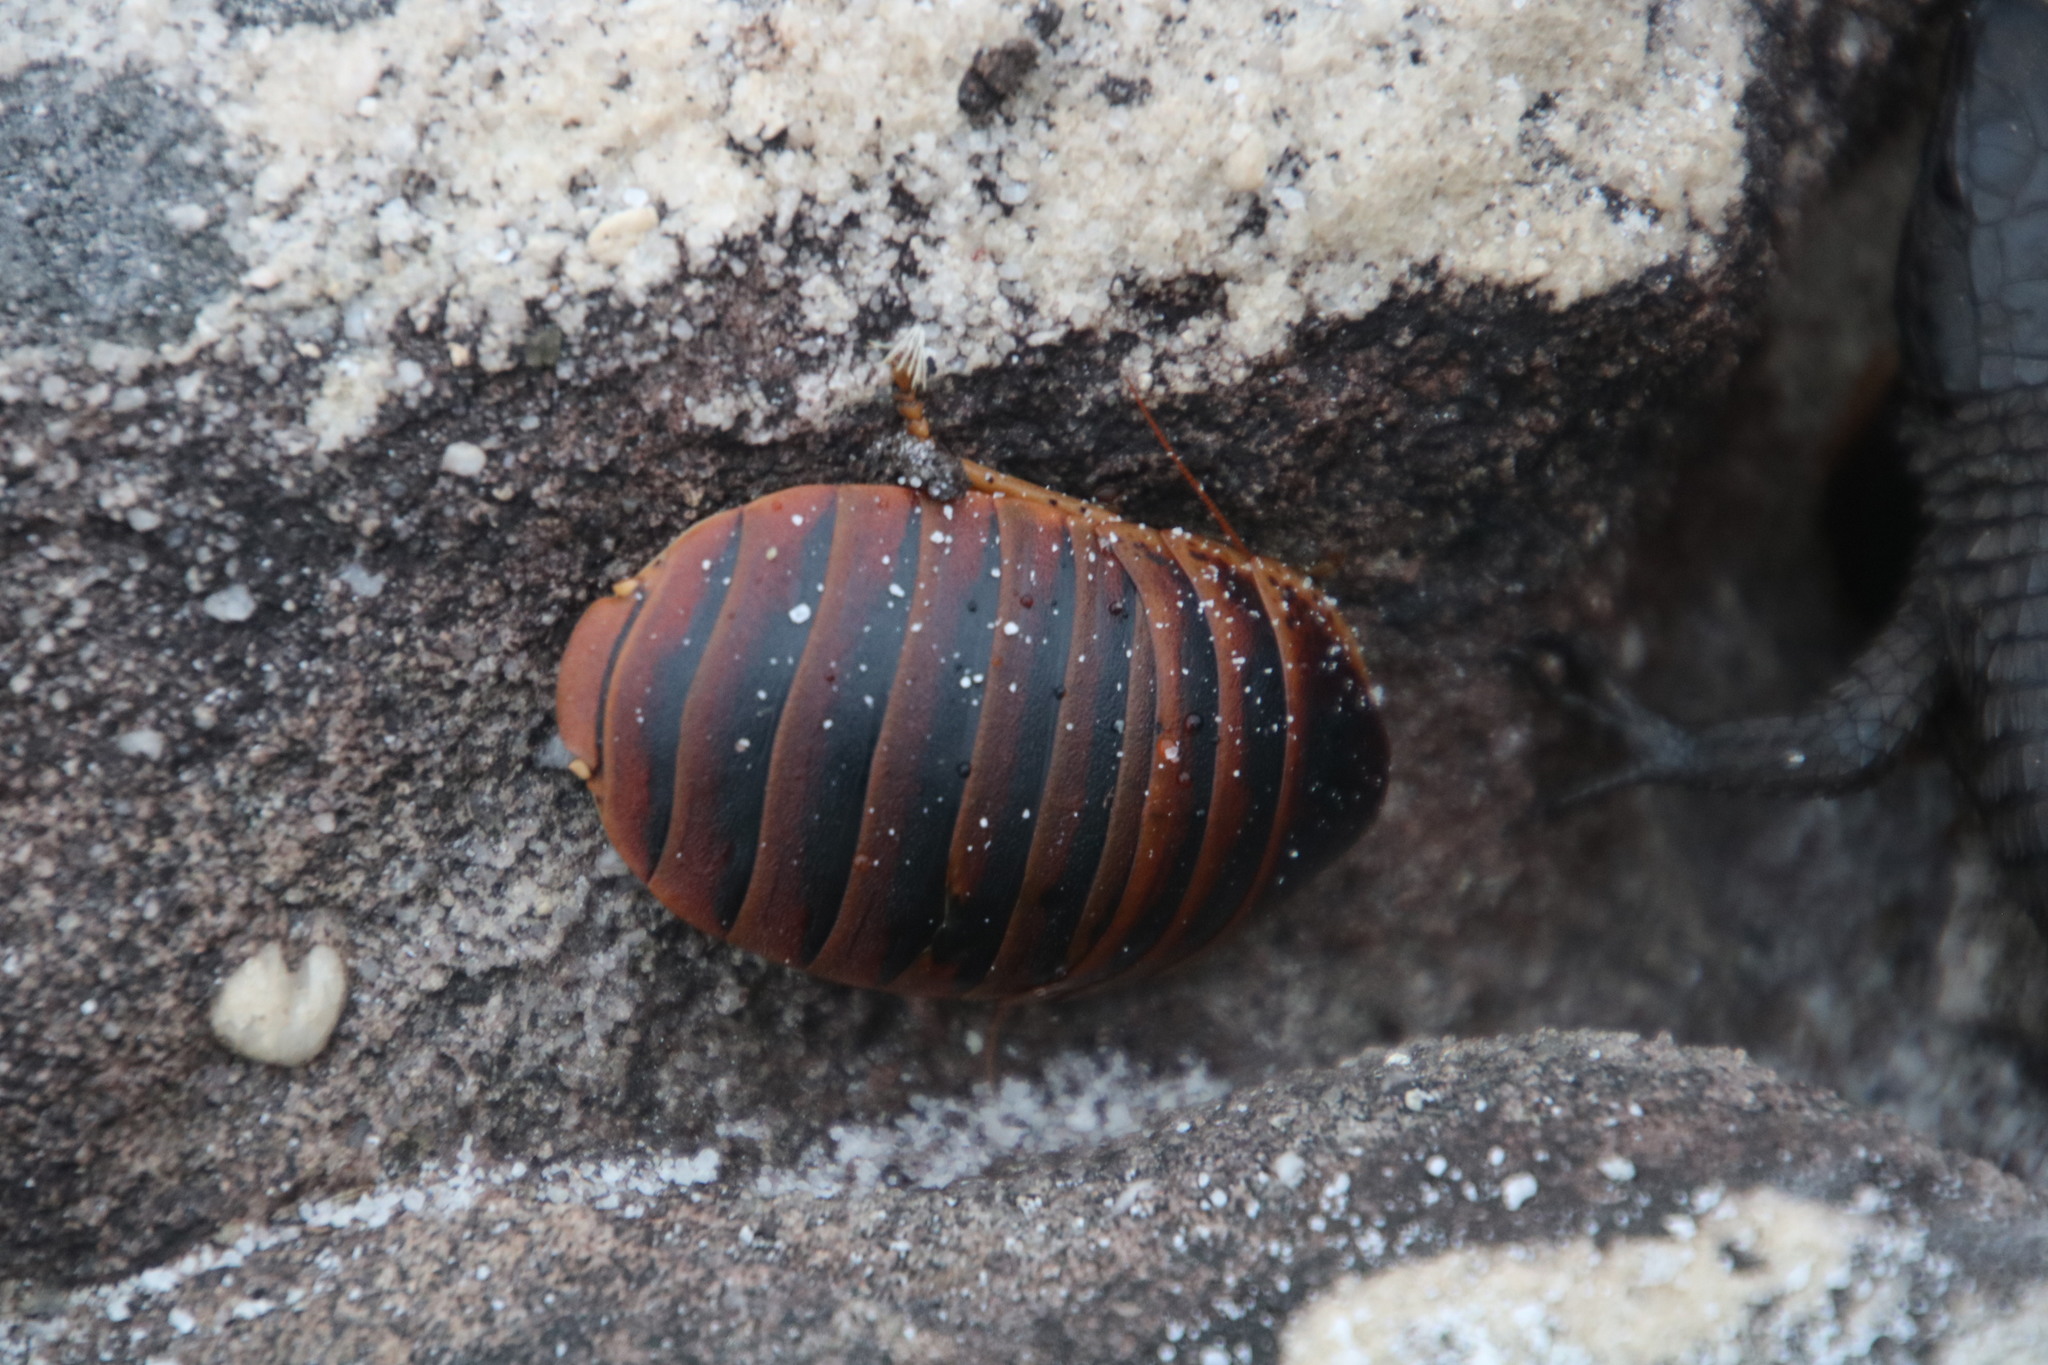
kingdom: Animalia
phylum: Arthropoda
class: Insecta
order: Blattodea
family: Blaberidae
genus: Aptera
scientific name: Aptera fusca
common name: Cape mountain cockroach
